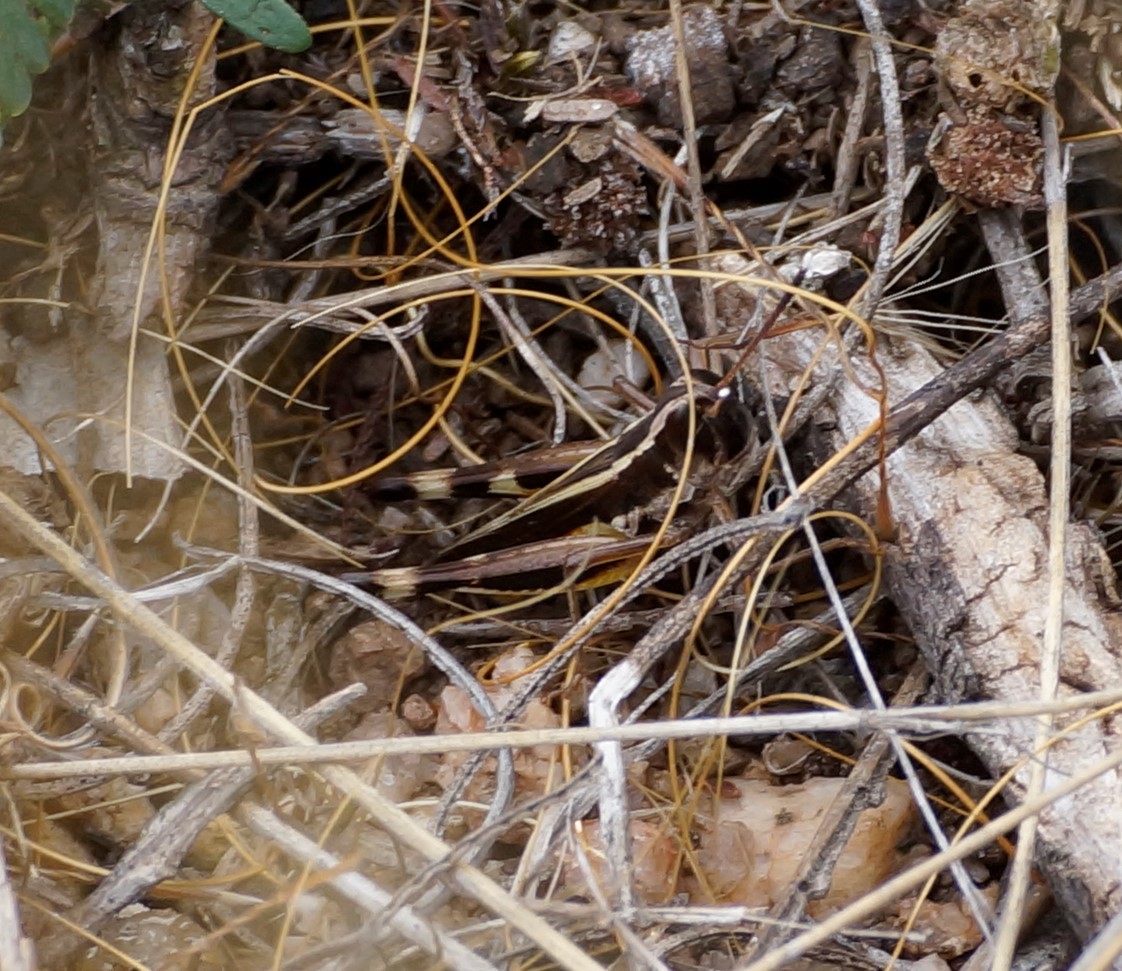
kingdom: Animalia
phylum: Arthropoda
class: Insecta
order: Orthoptera
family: Acrididae
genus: Macrotona
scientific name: Macrotona australis
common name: Common macrotona
